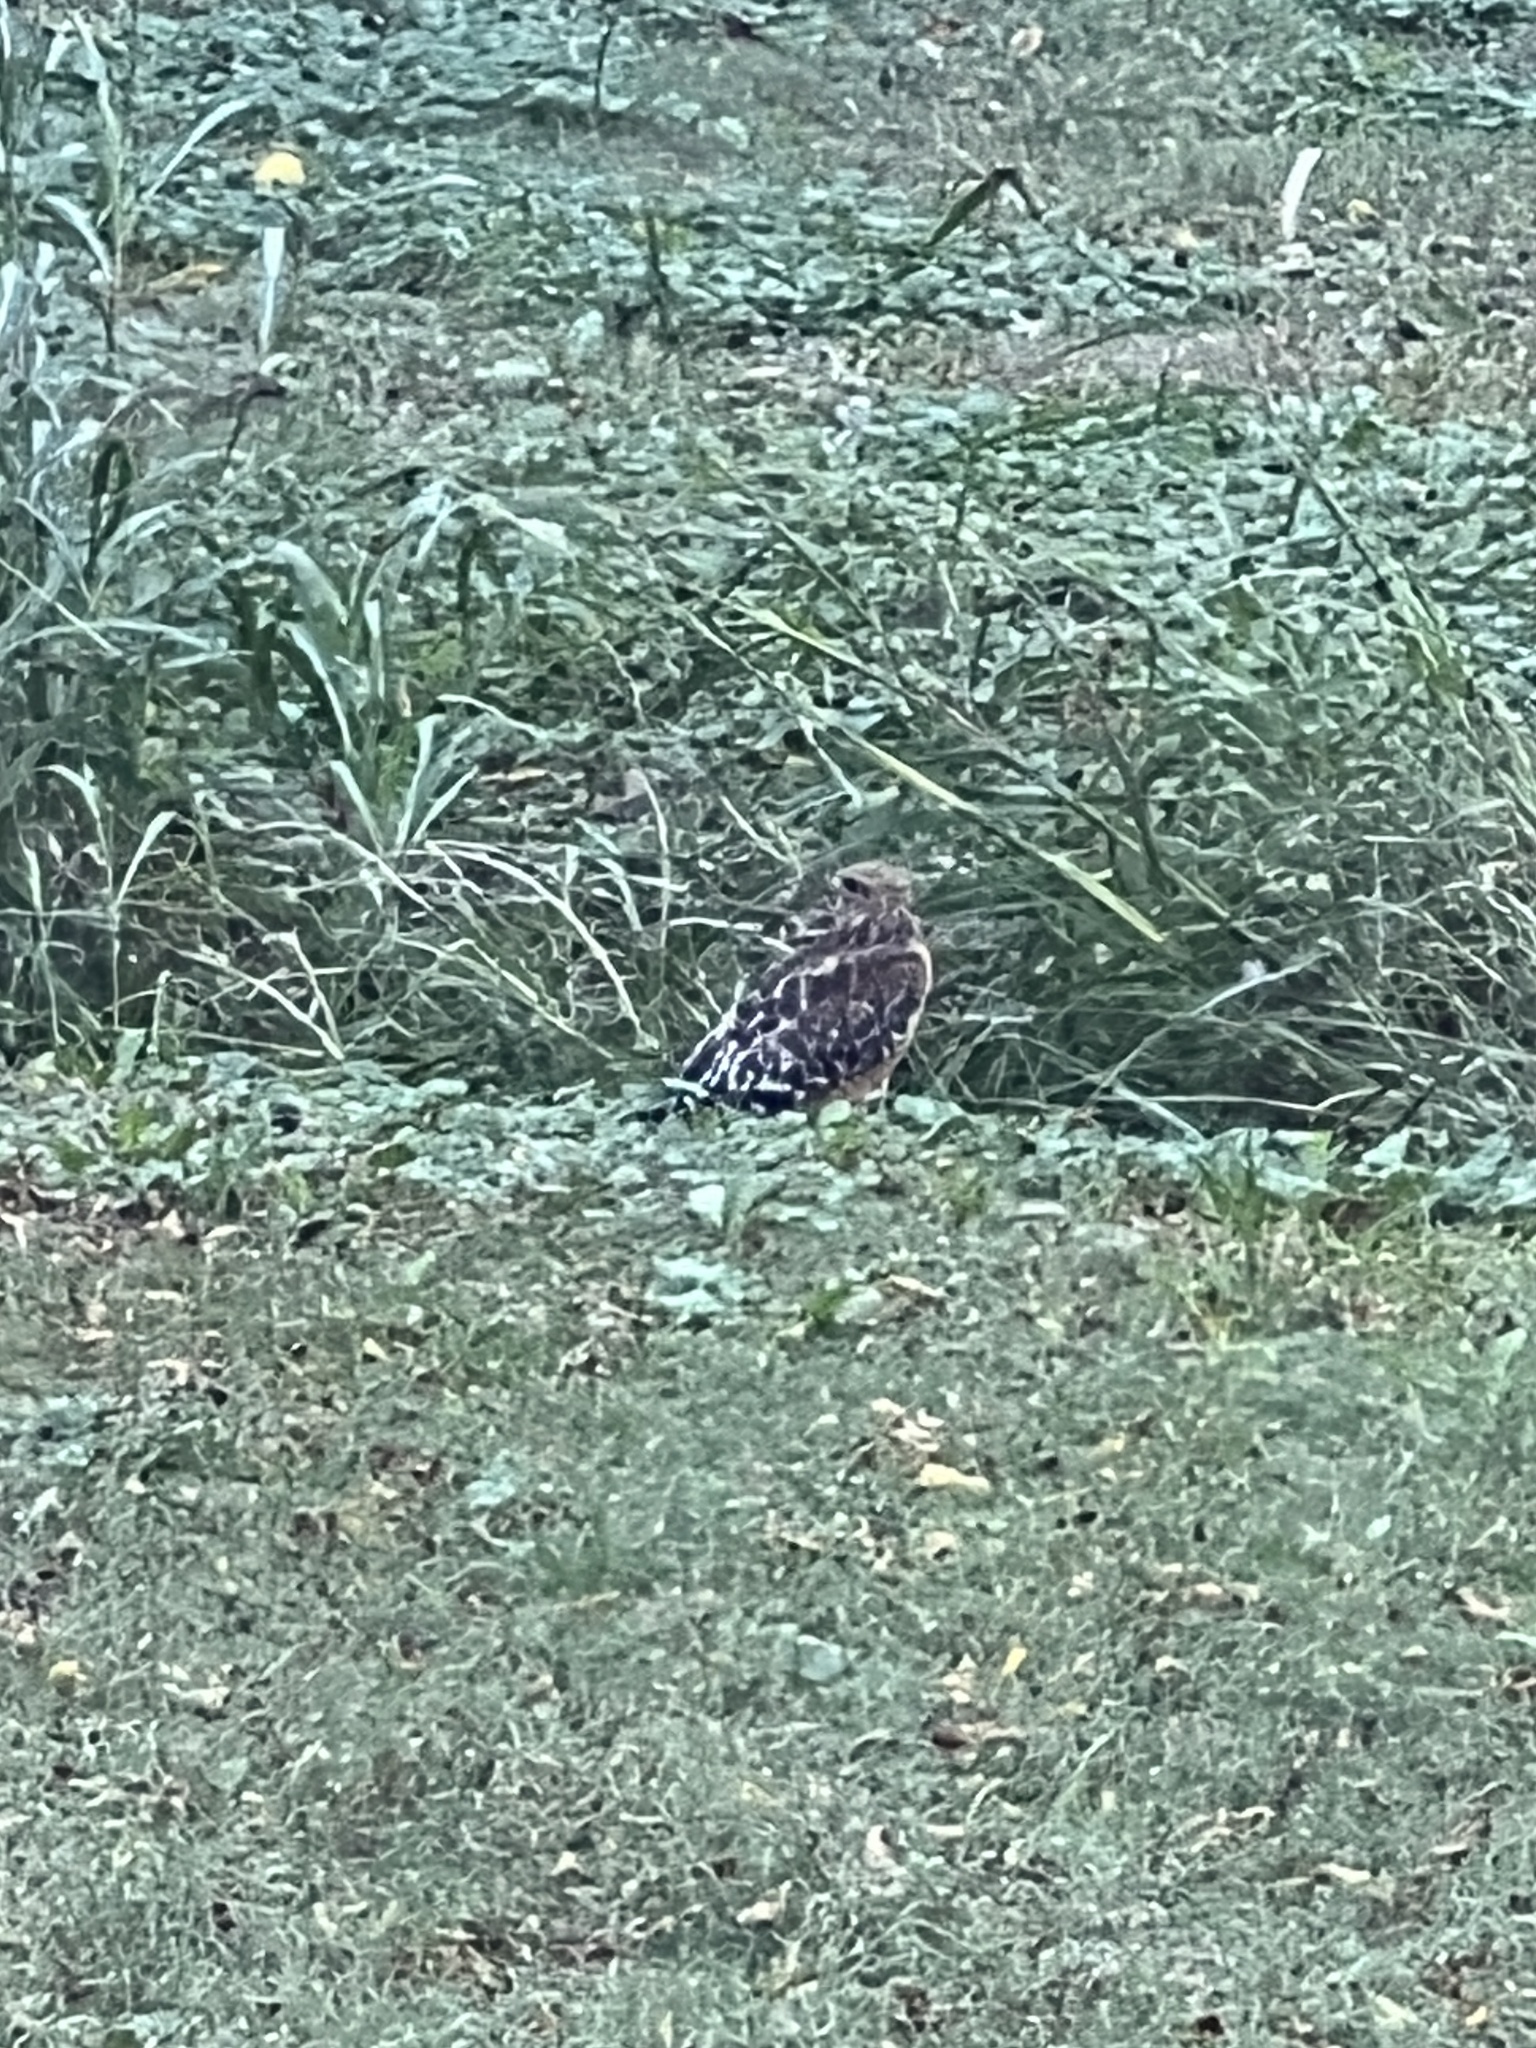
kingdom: Animalia
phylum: Chordata
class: Aves
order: Accipitriformes
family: Accipitridae
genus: Buteo
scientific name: Buteo lineatus
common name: Red-shouldered hawk
